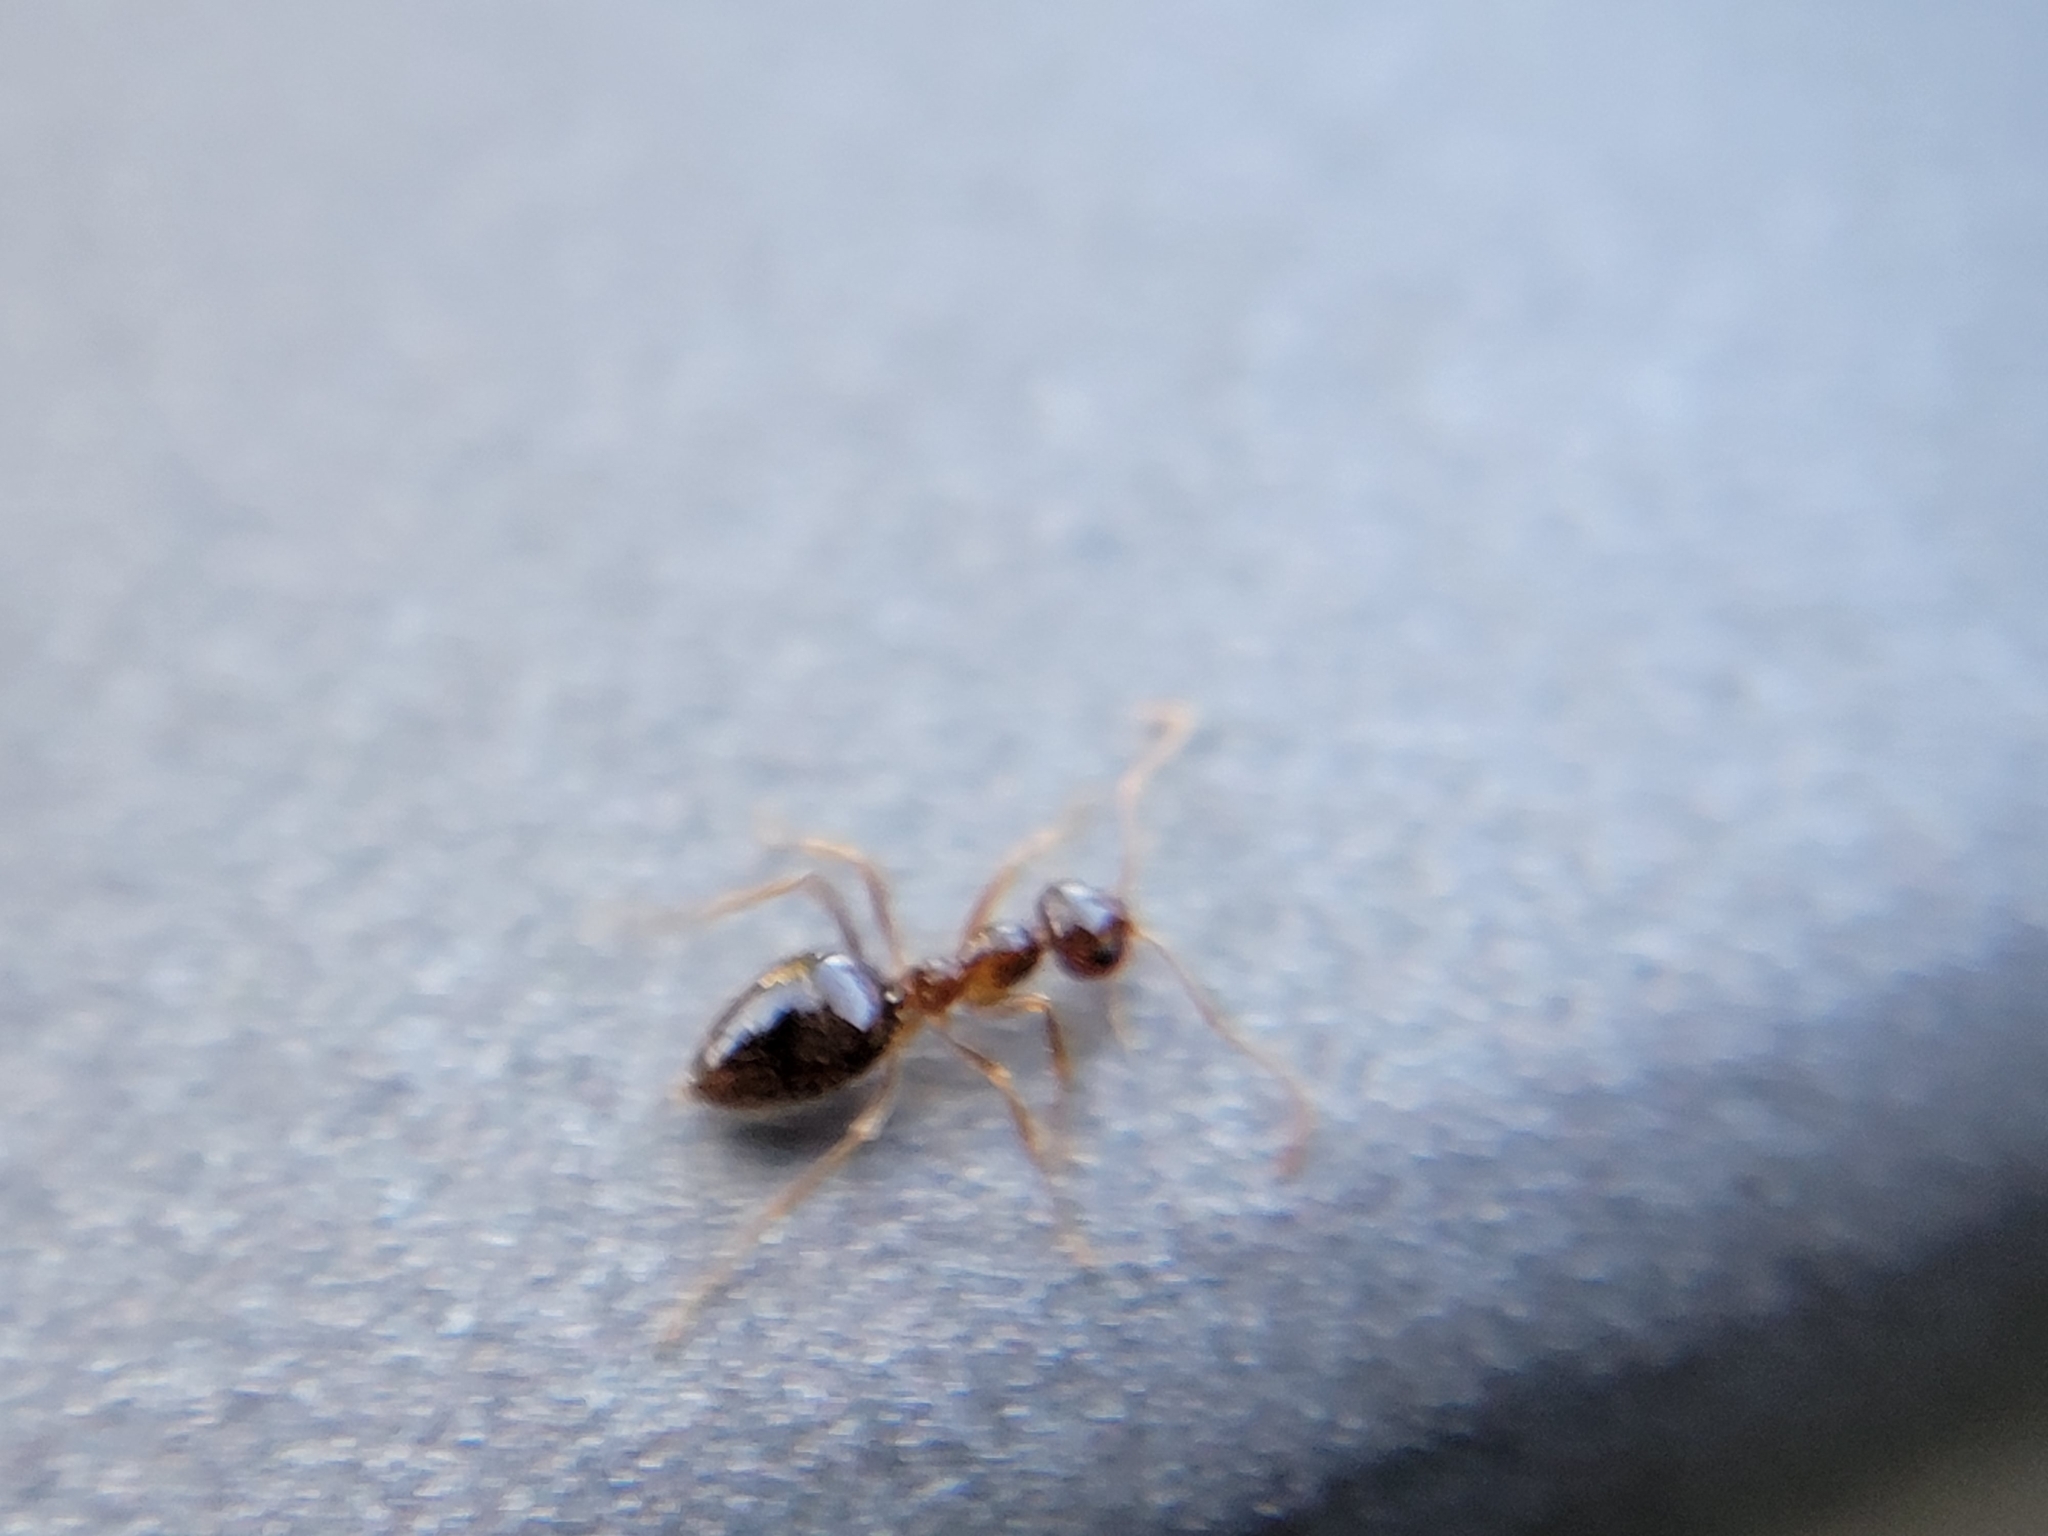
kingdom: Animalia
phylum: Arthropoda
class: Insecta
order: Hymenoptera
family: Formicidae
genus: Prenolepis
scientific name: Prenolepis imparis
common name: Small honey ant
